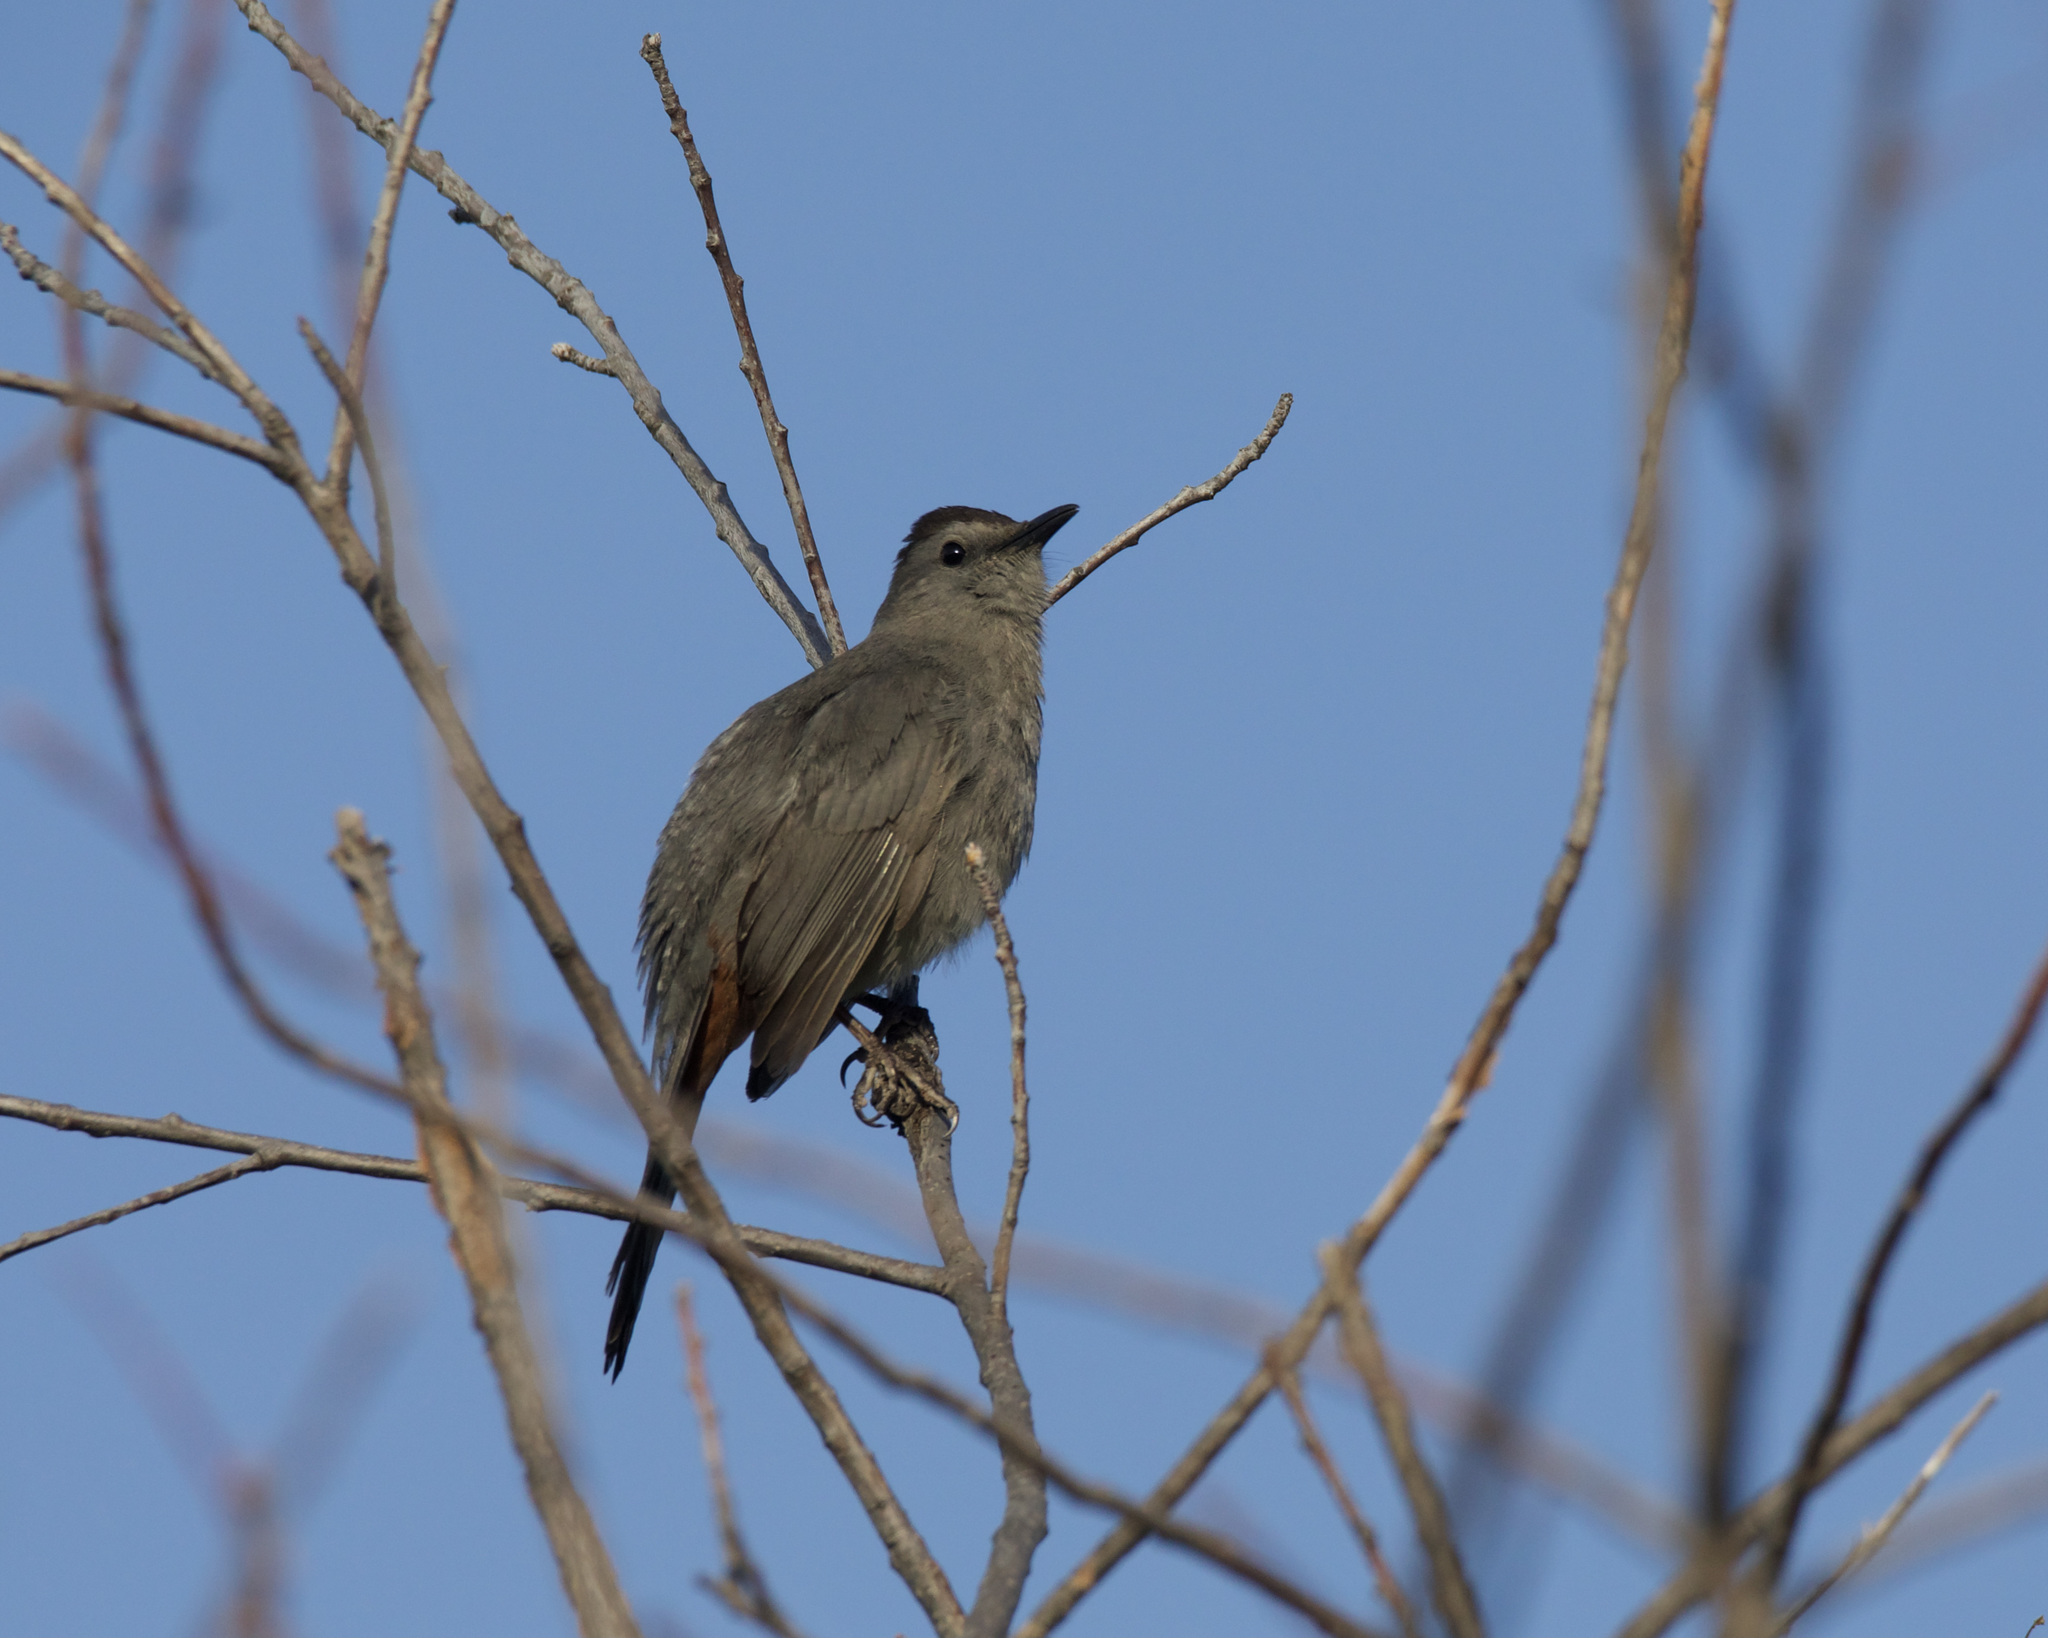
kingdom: Animalia
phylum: Chordata
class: Aves
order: Passeriformes
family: Mimidae
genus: Dumetella
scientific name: Dumetella carolinensis
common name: Gray catbird
